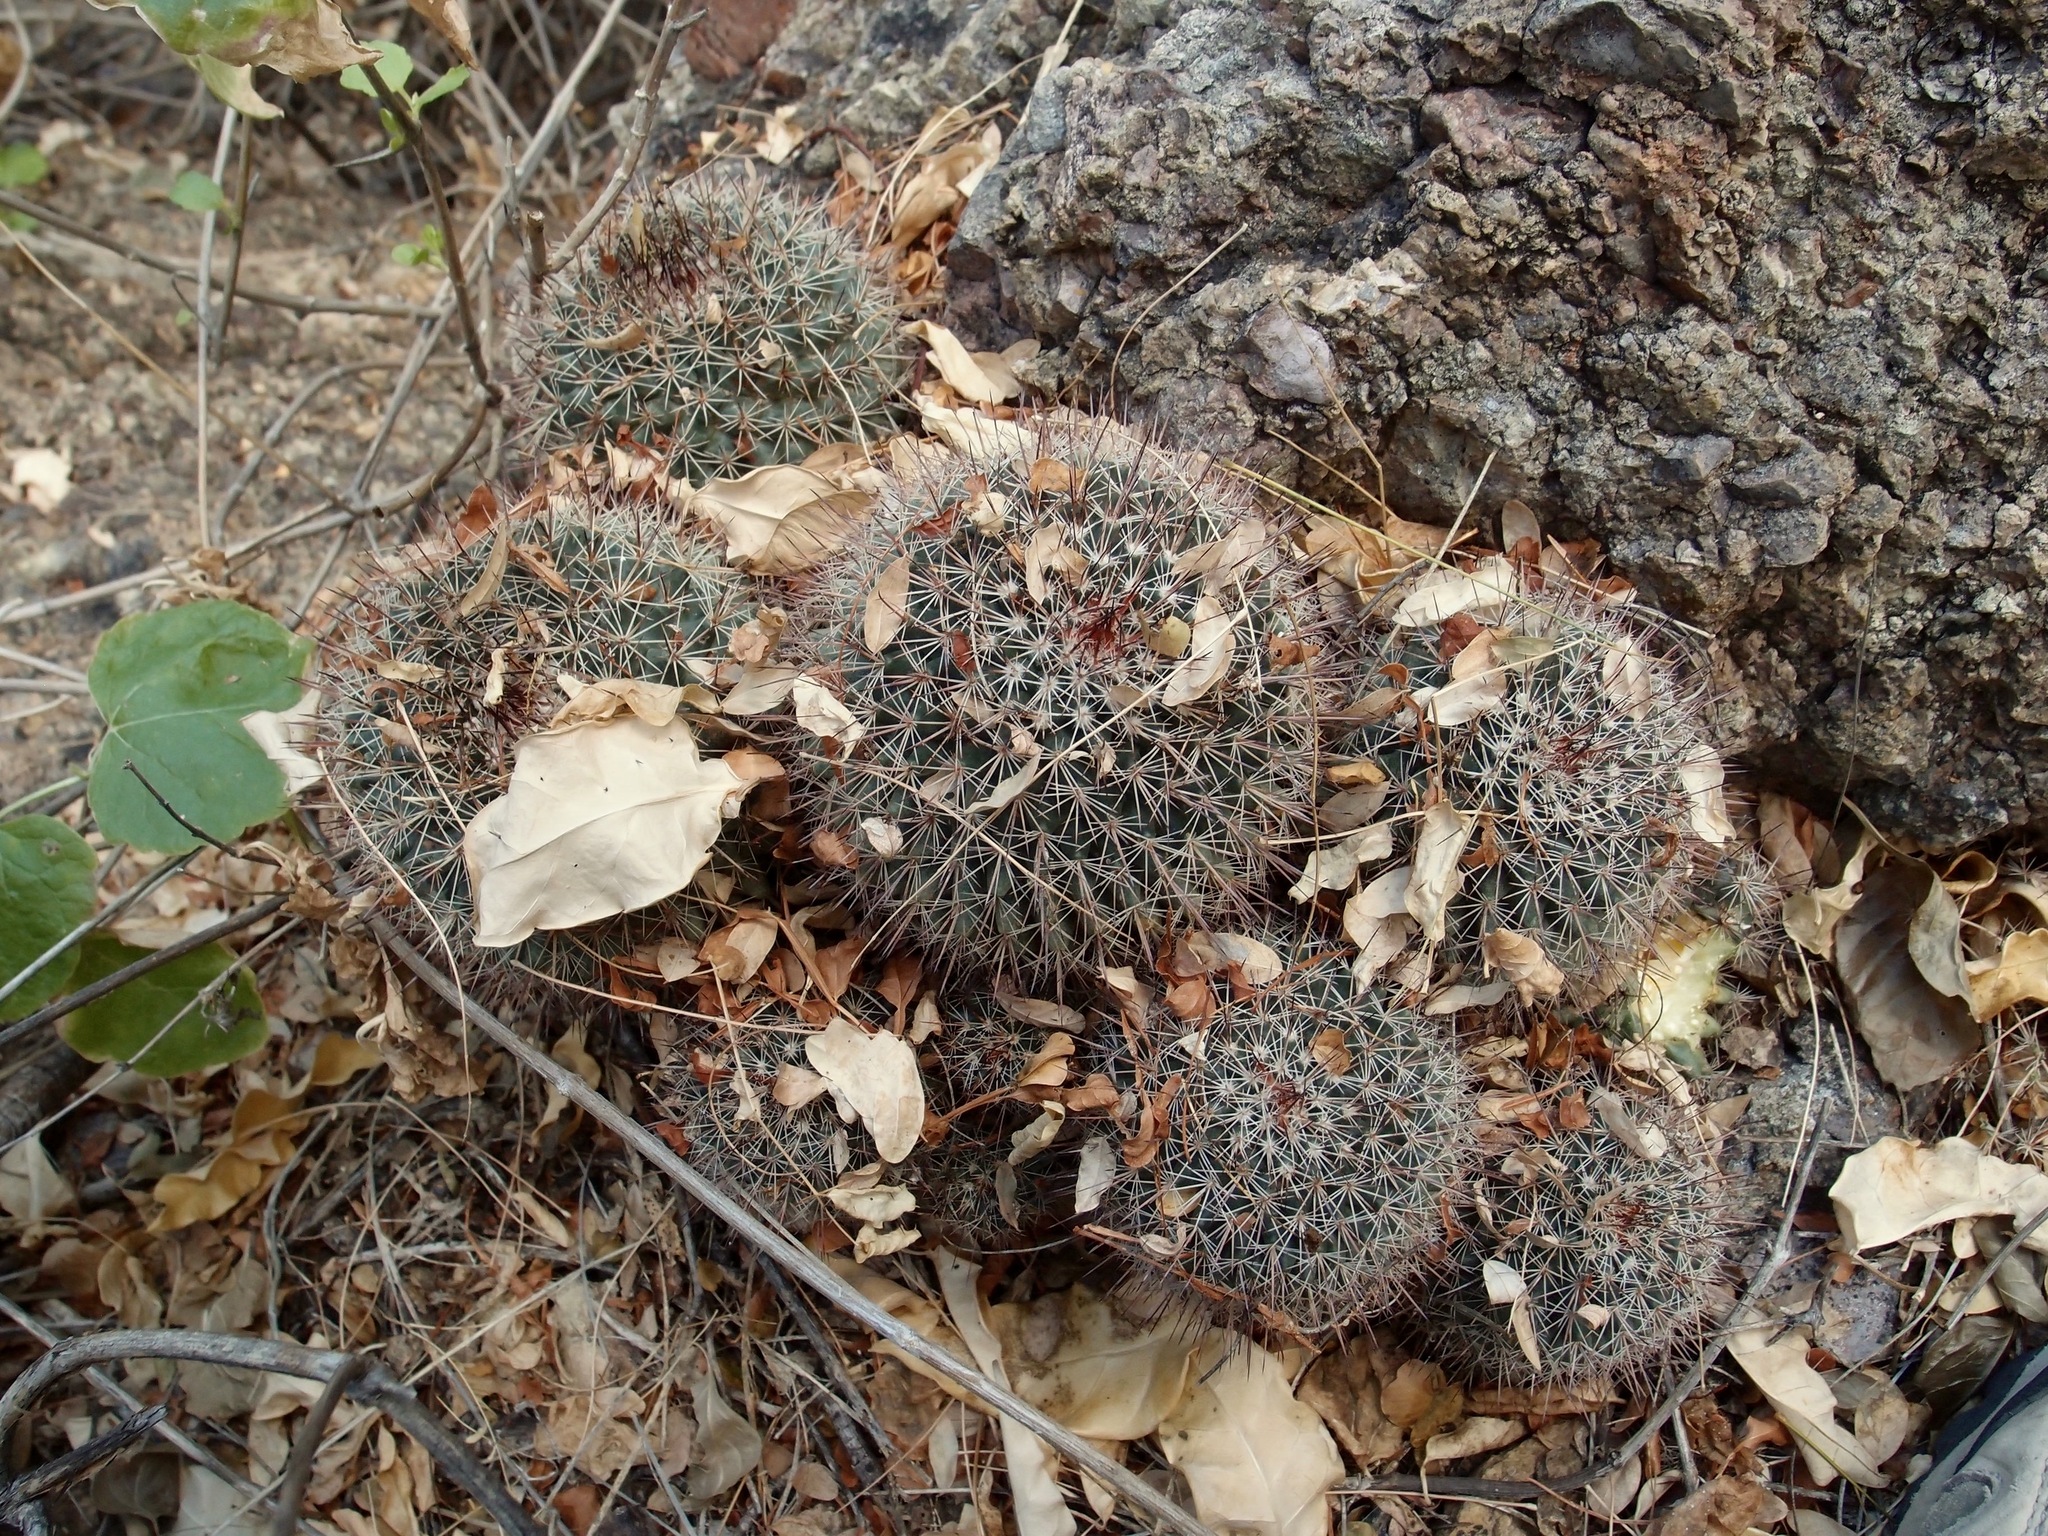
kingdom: Plantae
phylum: Tracheophyta
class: Magnoliopsida
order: Caryophyllales
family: Cactaceae
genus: Mammillaria
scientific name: Mammillaria johnstonii
